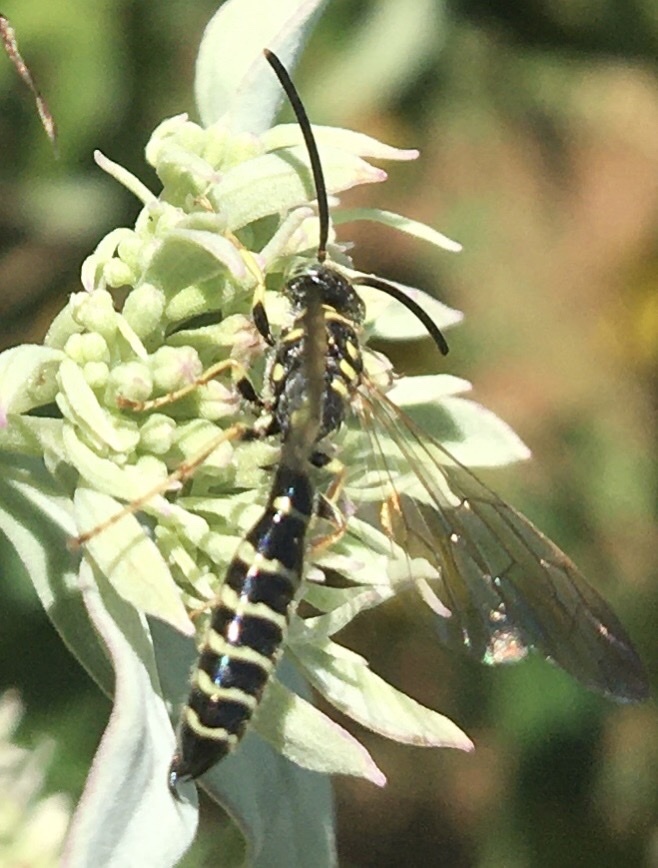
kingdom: Animalia
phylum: Arthropoda
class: Insecta
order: Hymenoptera
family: Tiphiidae
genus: Myzinum
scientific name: Myzinum
